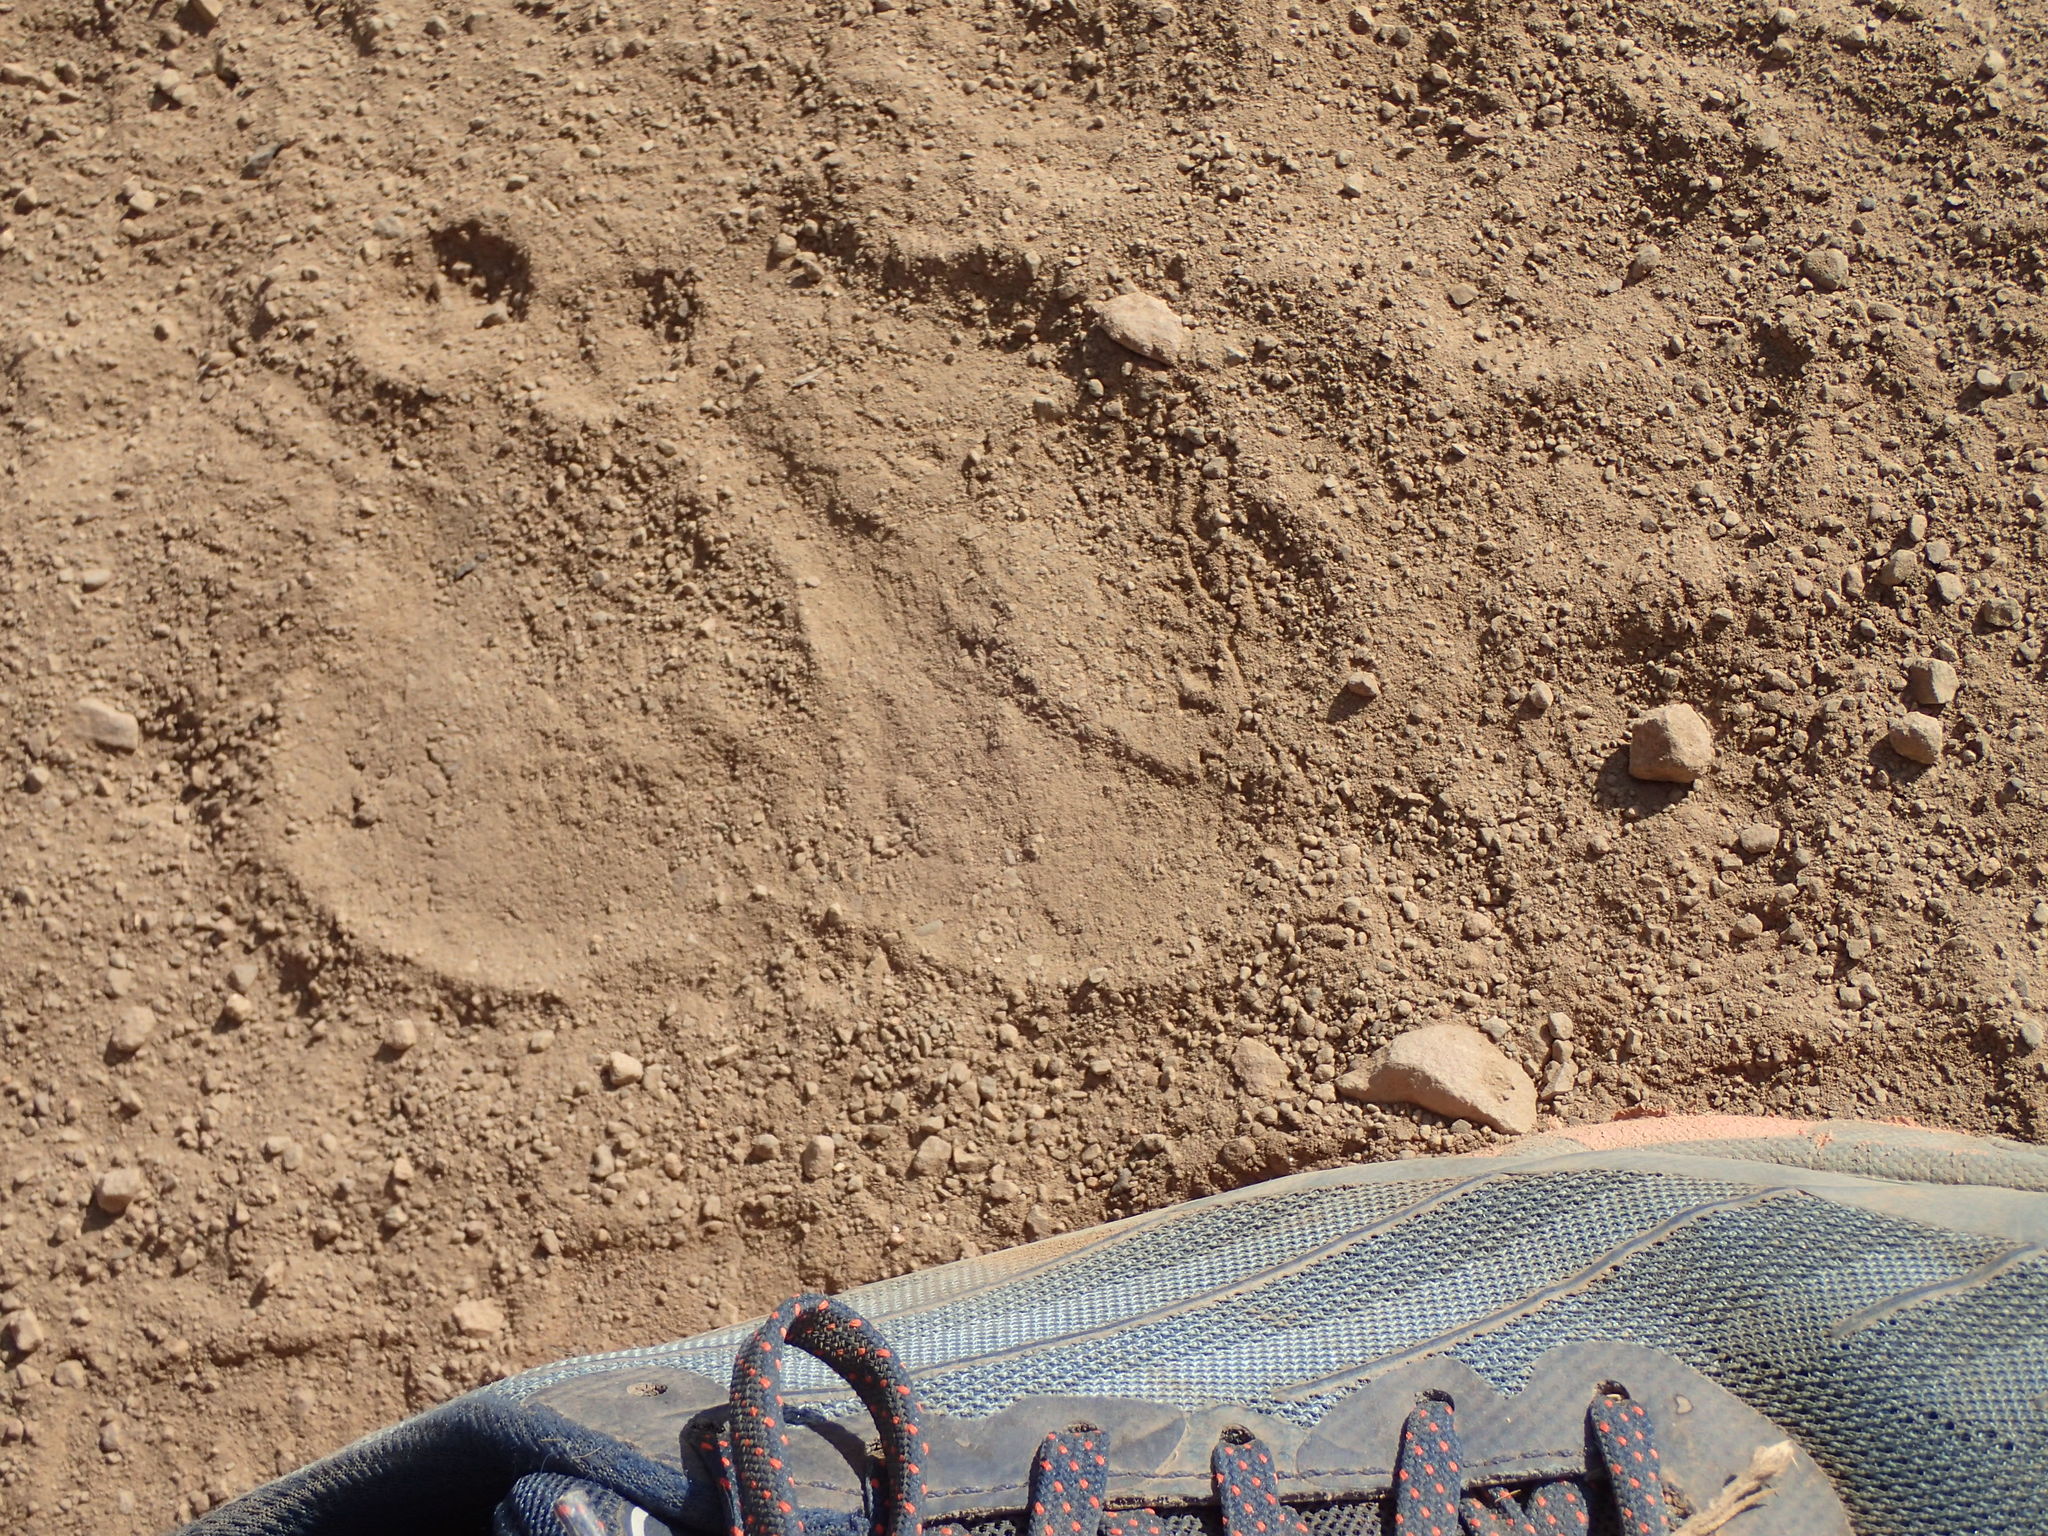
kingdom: Animalia
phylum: Chordata
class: Mammalia
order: Carnivora
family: Ursidae
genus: Ursus
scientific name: Ursus americanus
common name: American black bear
